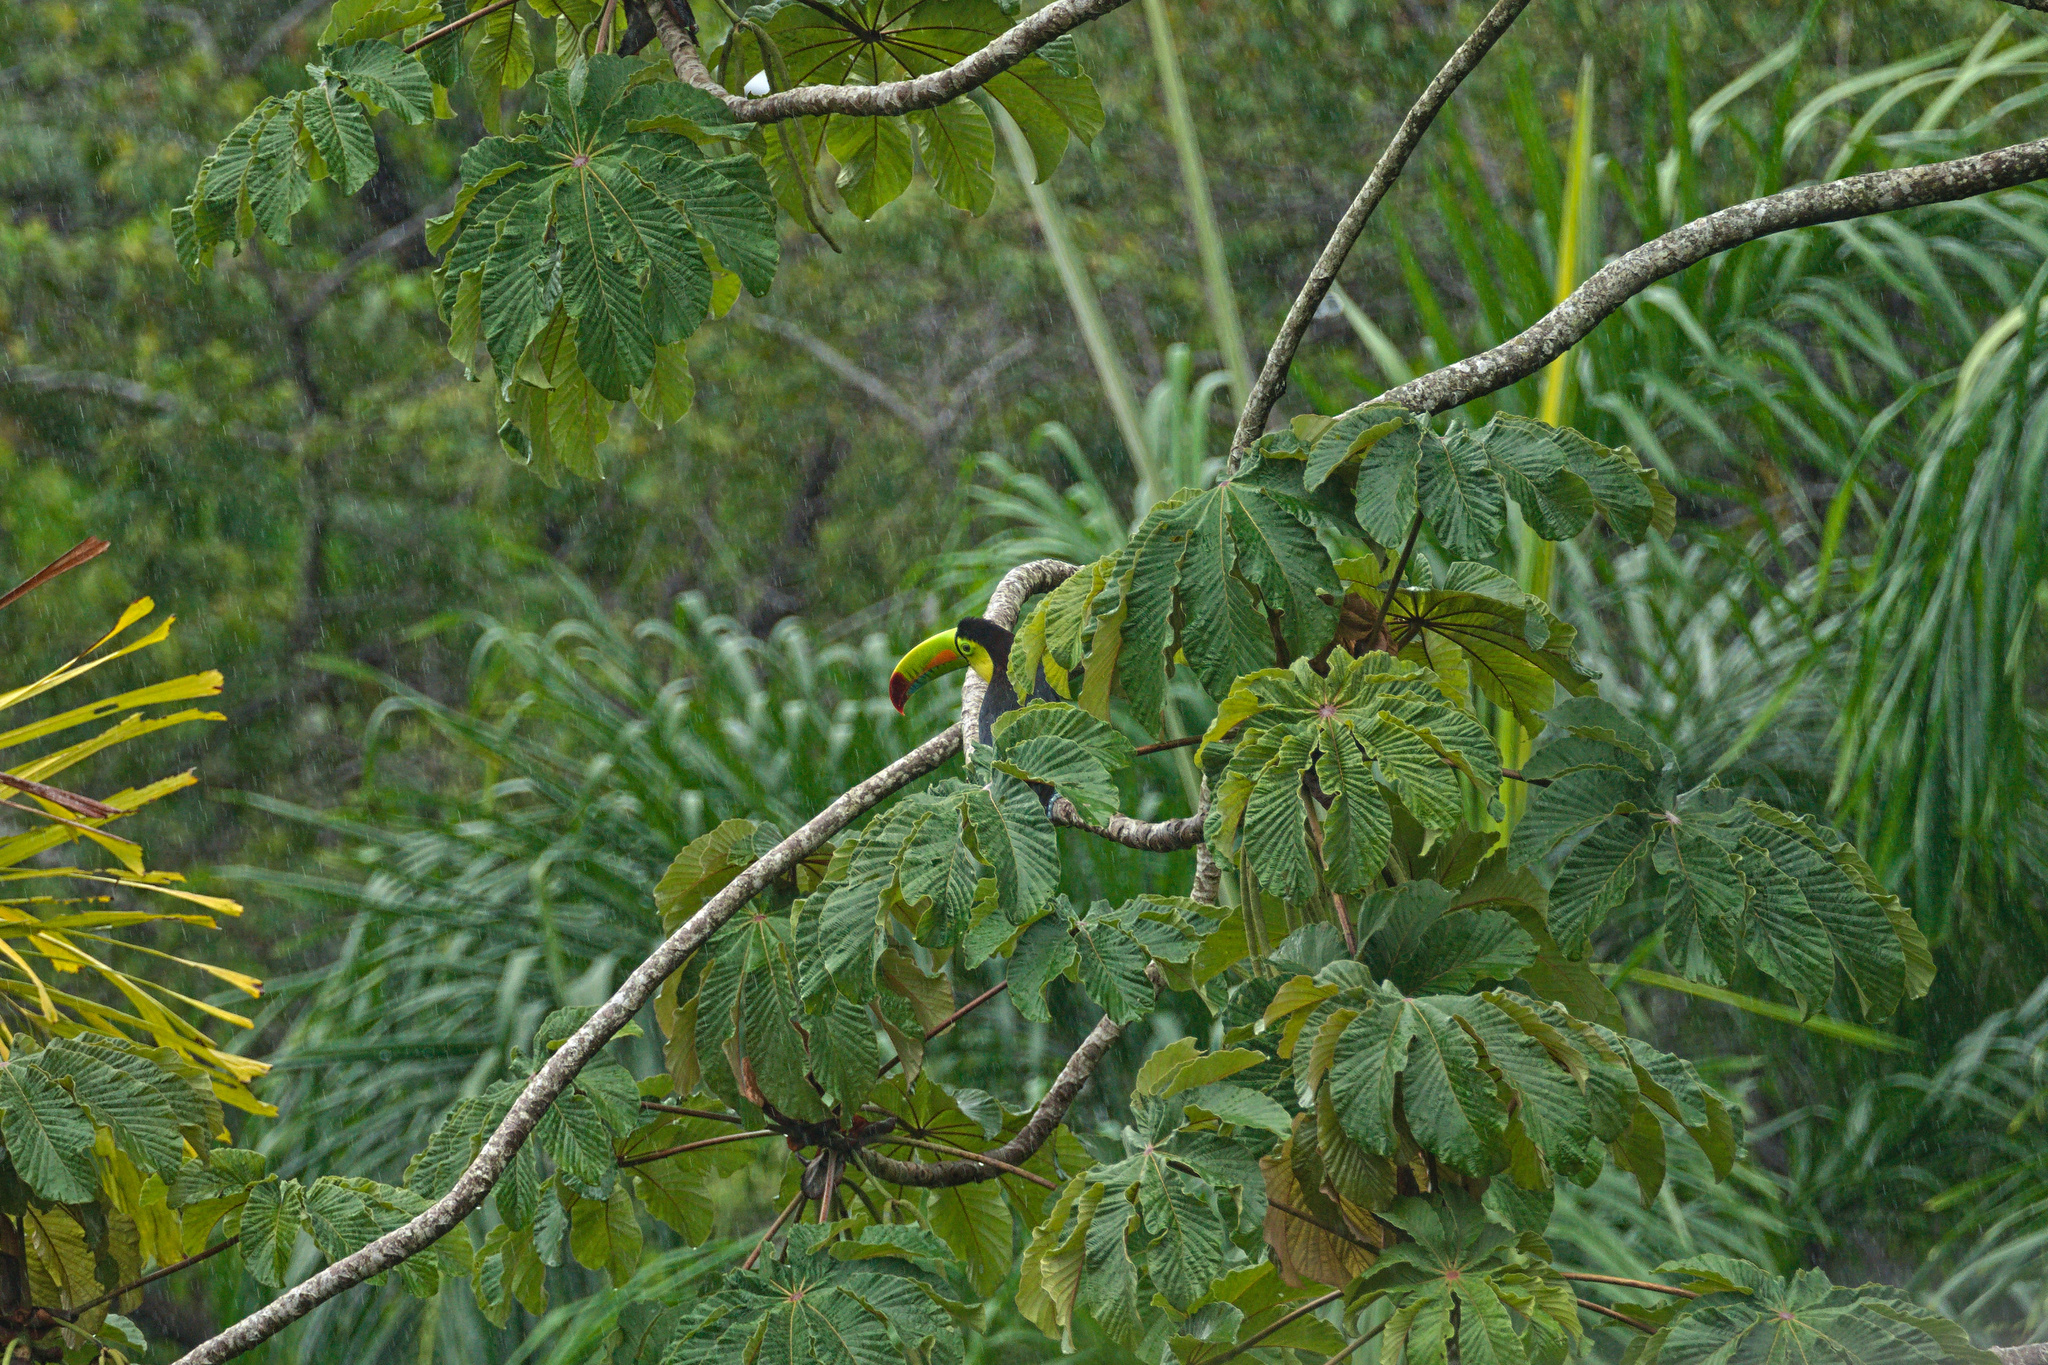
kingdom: Animalia
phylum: Chordata
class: Aves
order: Piciformes
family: Ramphastidae
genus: Ramphastos
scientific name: Ramphastos sulfuratus
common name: Keel-billed toucan
